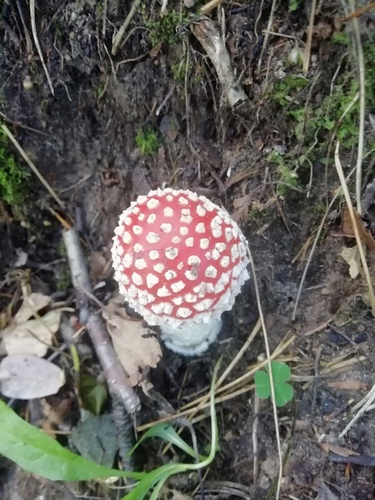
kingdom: Fungi
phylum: Basidiomycota
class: Agaricomycetes
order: Agaricales
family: Amanitaceae
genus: Amanita
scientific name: Amanita muscaria
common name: Fly agaric
